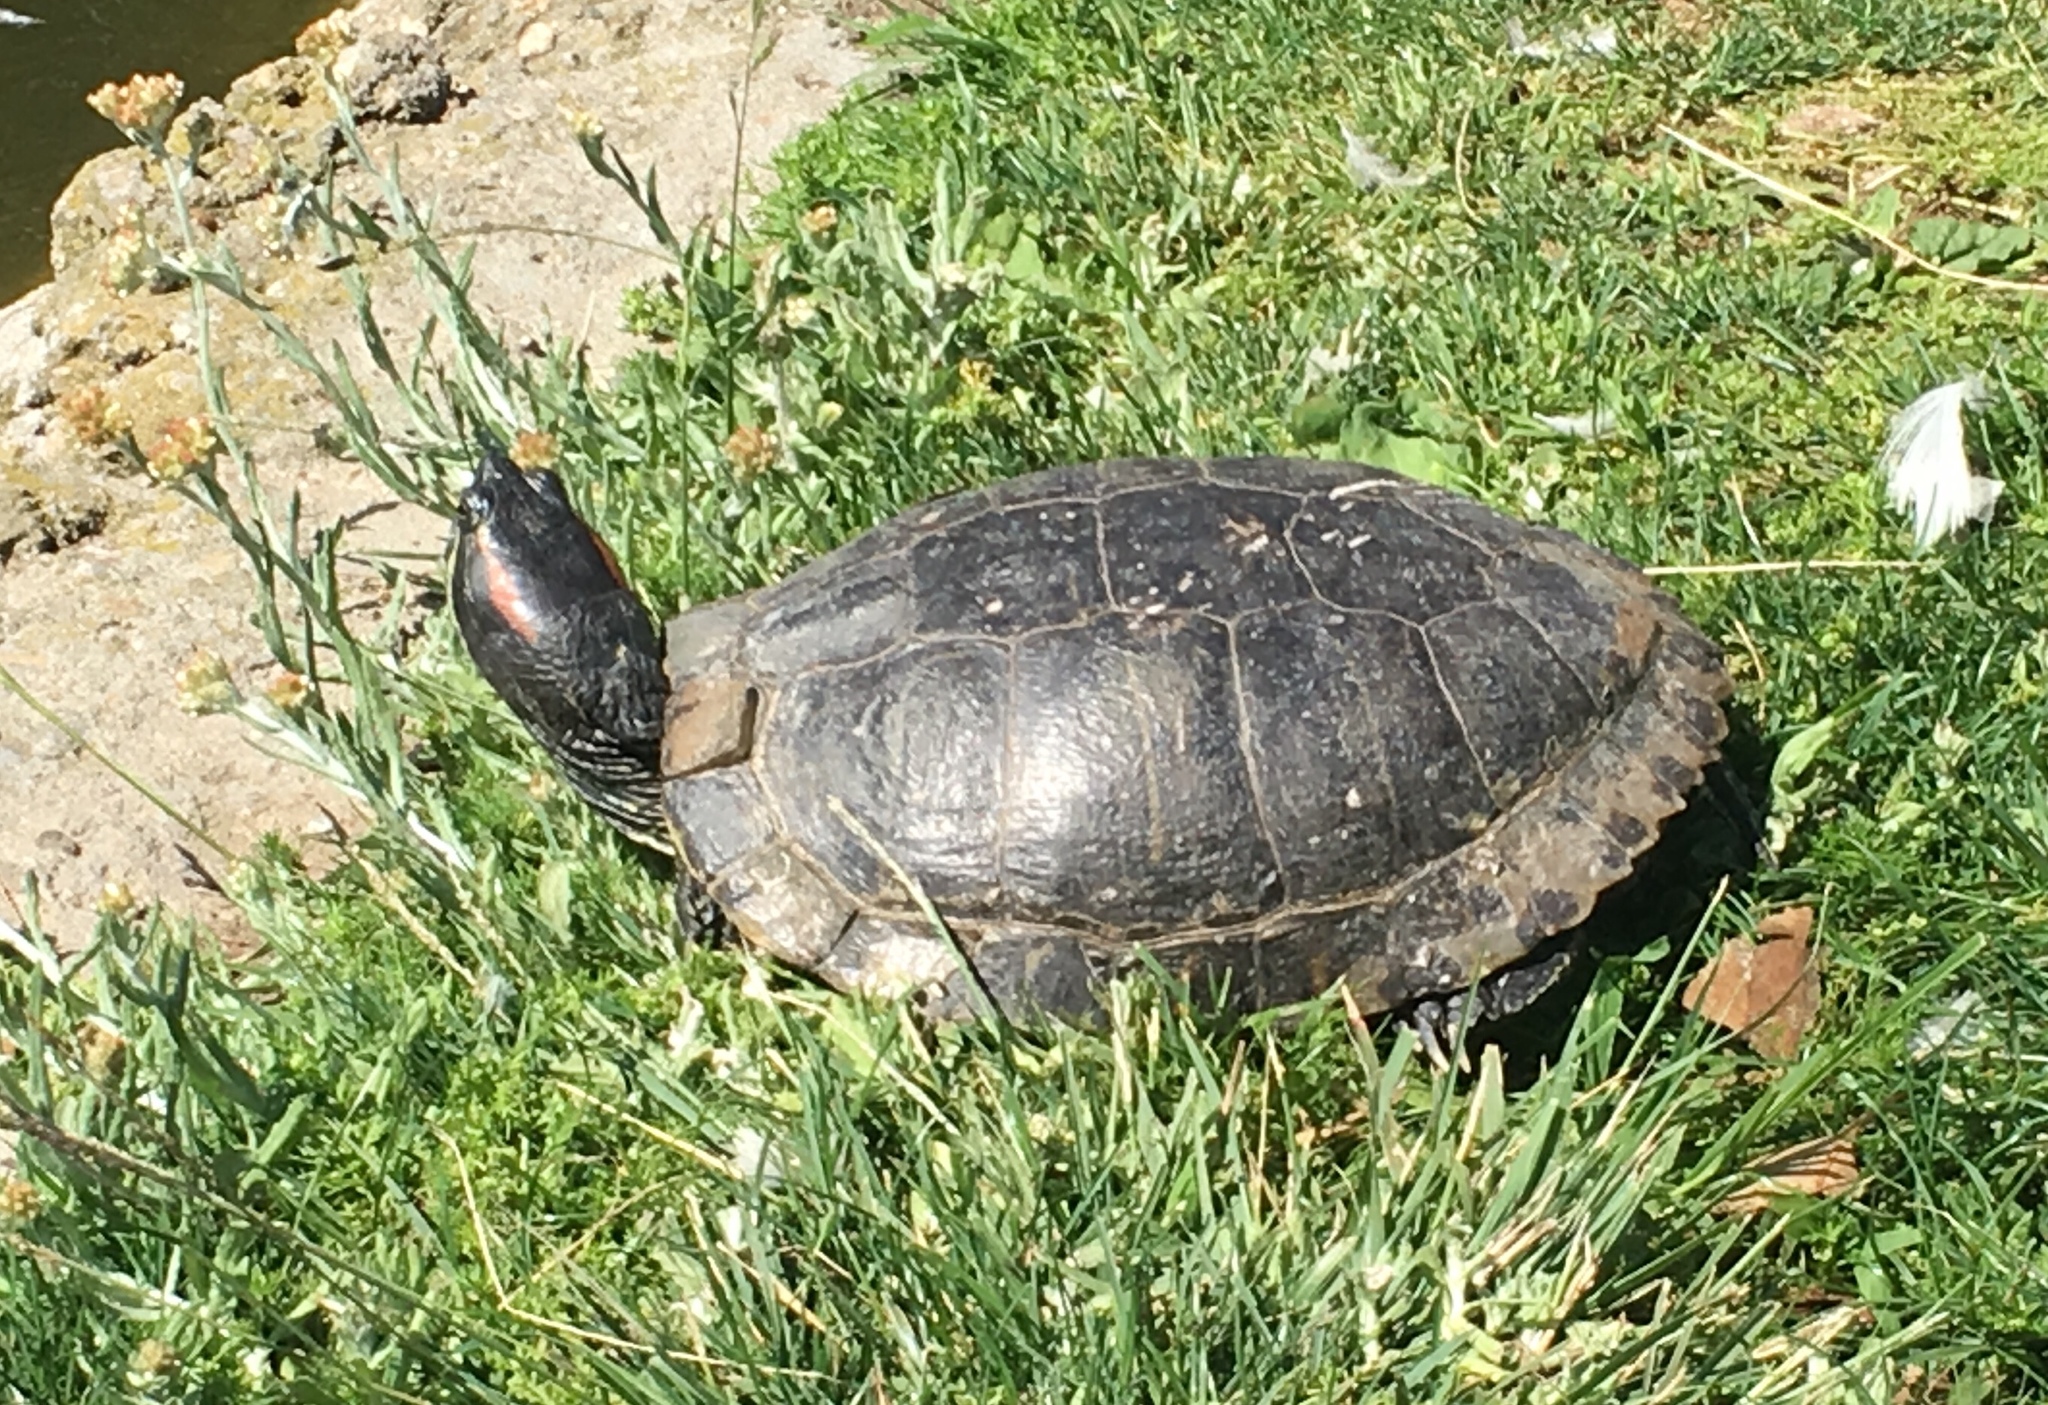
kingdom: Animalia
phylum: Chordata
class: Testudines
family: Emydidae
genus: Trachemys
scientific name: Trachemys scripta
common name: Slider
